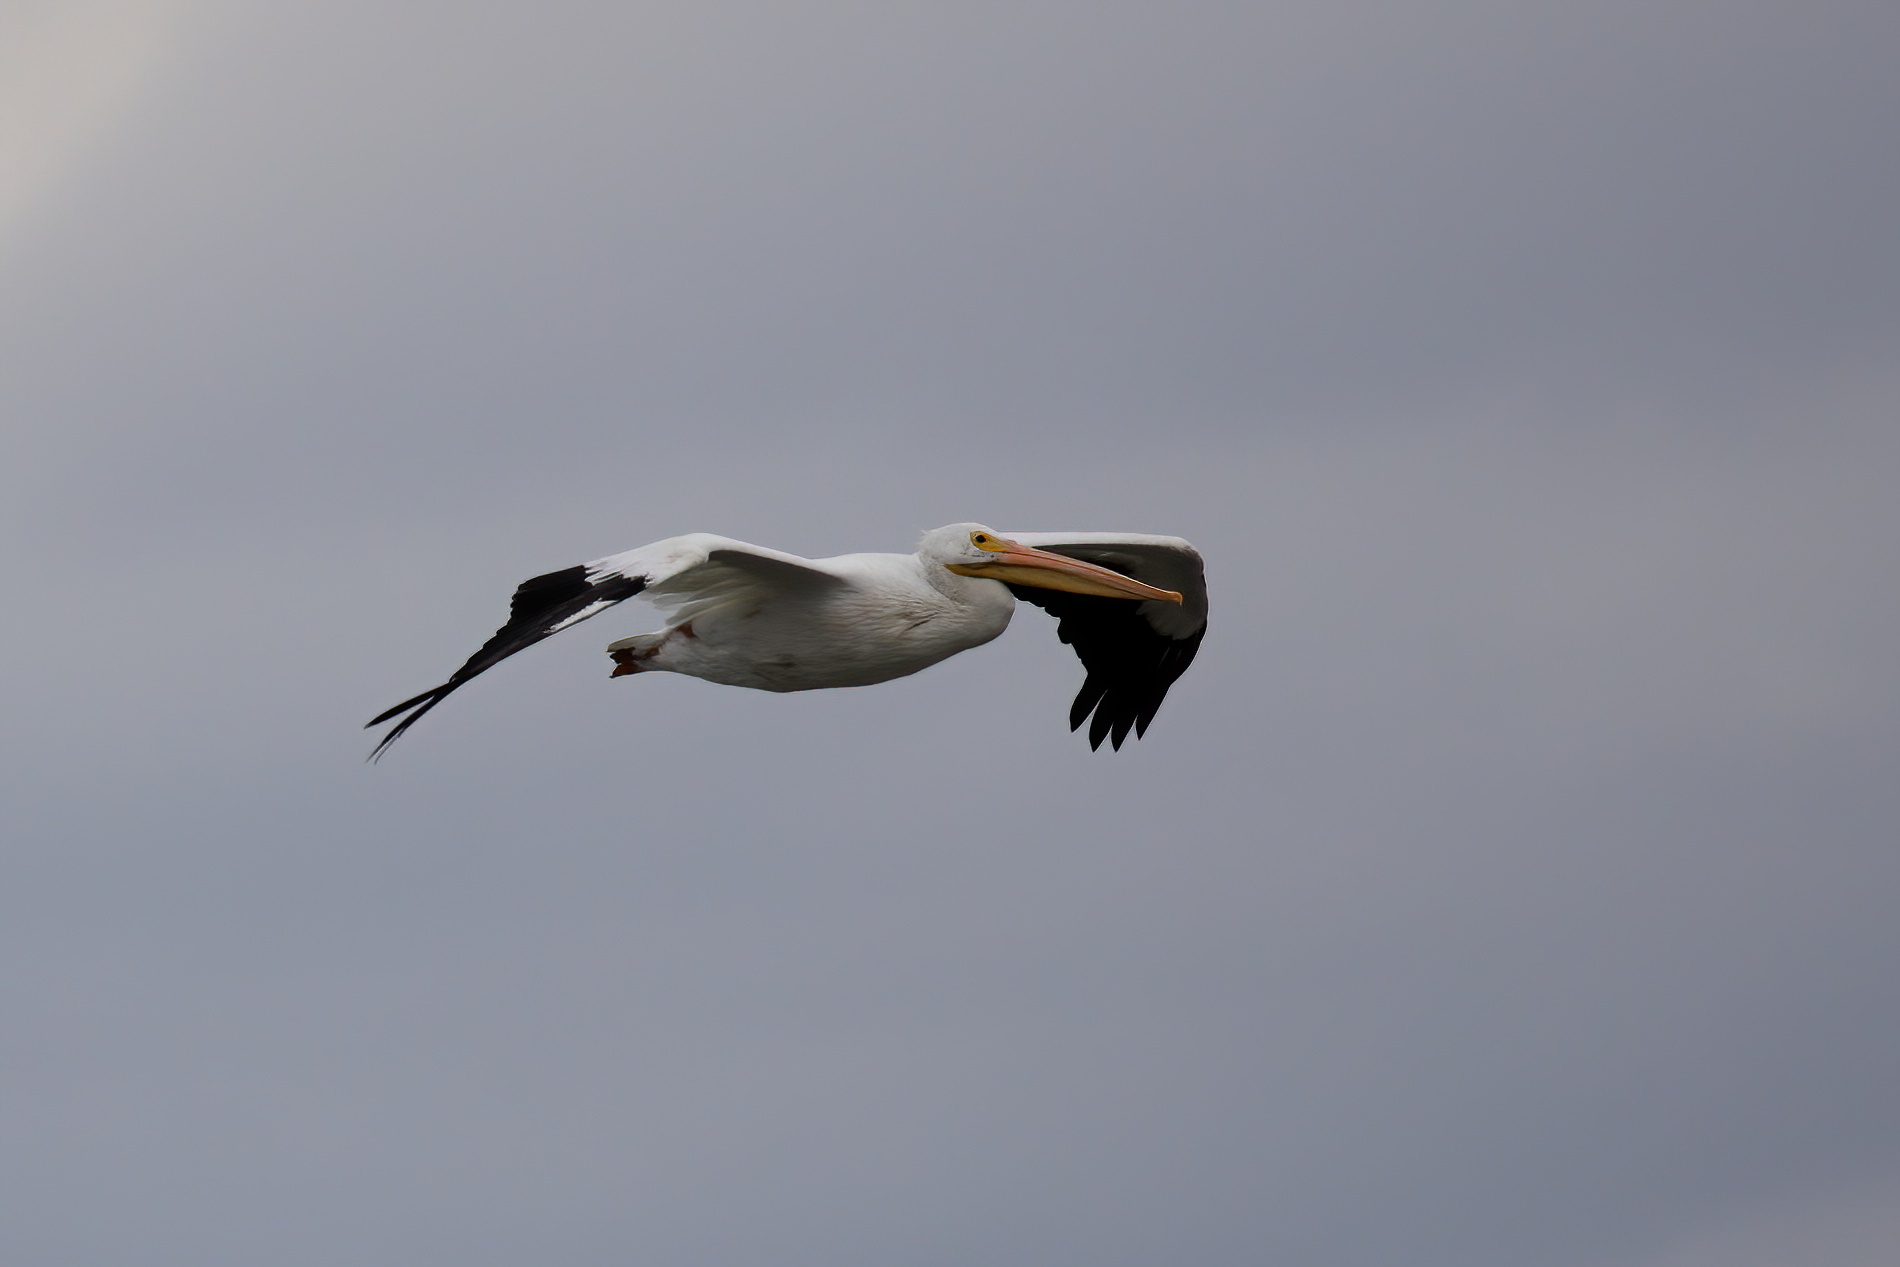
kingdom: Animalia
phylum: Chordata
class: Aves
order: Pelecaniformes
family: Pelecanidae
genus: Pelecanus
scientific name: Pelecanus erythrorhynchos
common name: American white pelican
